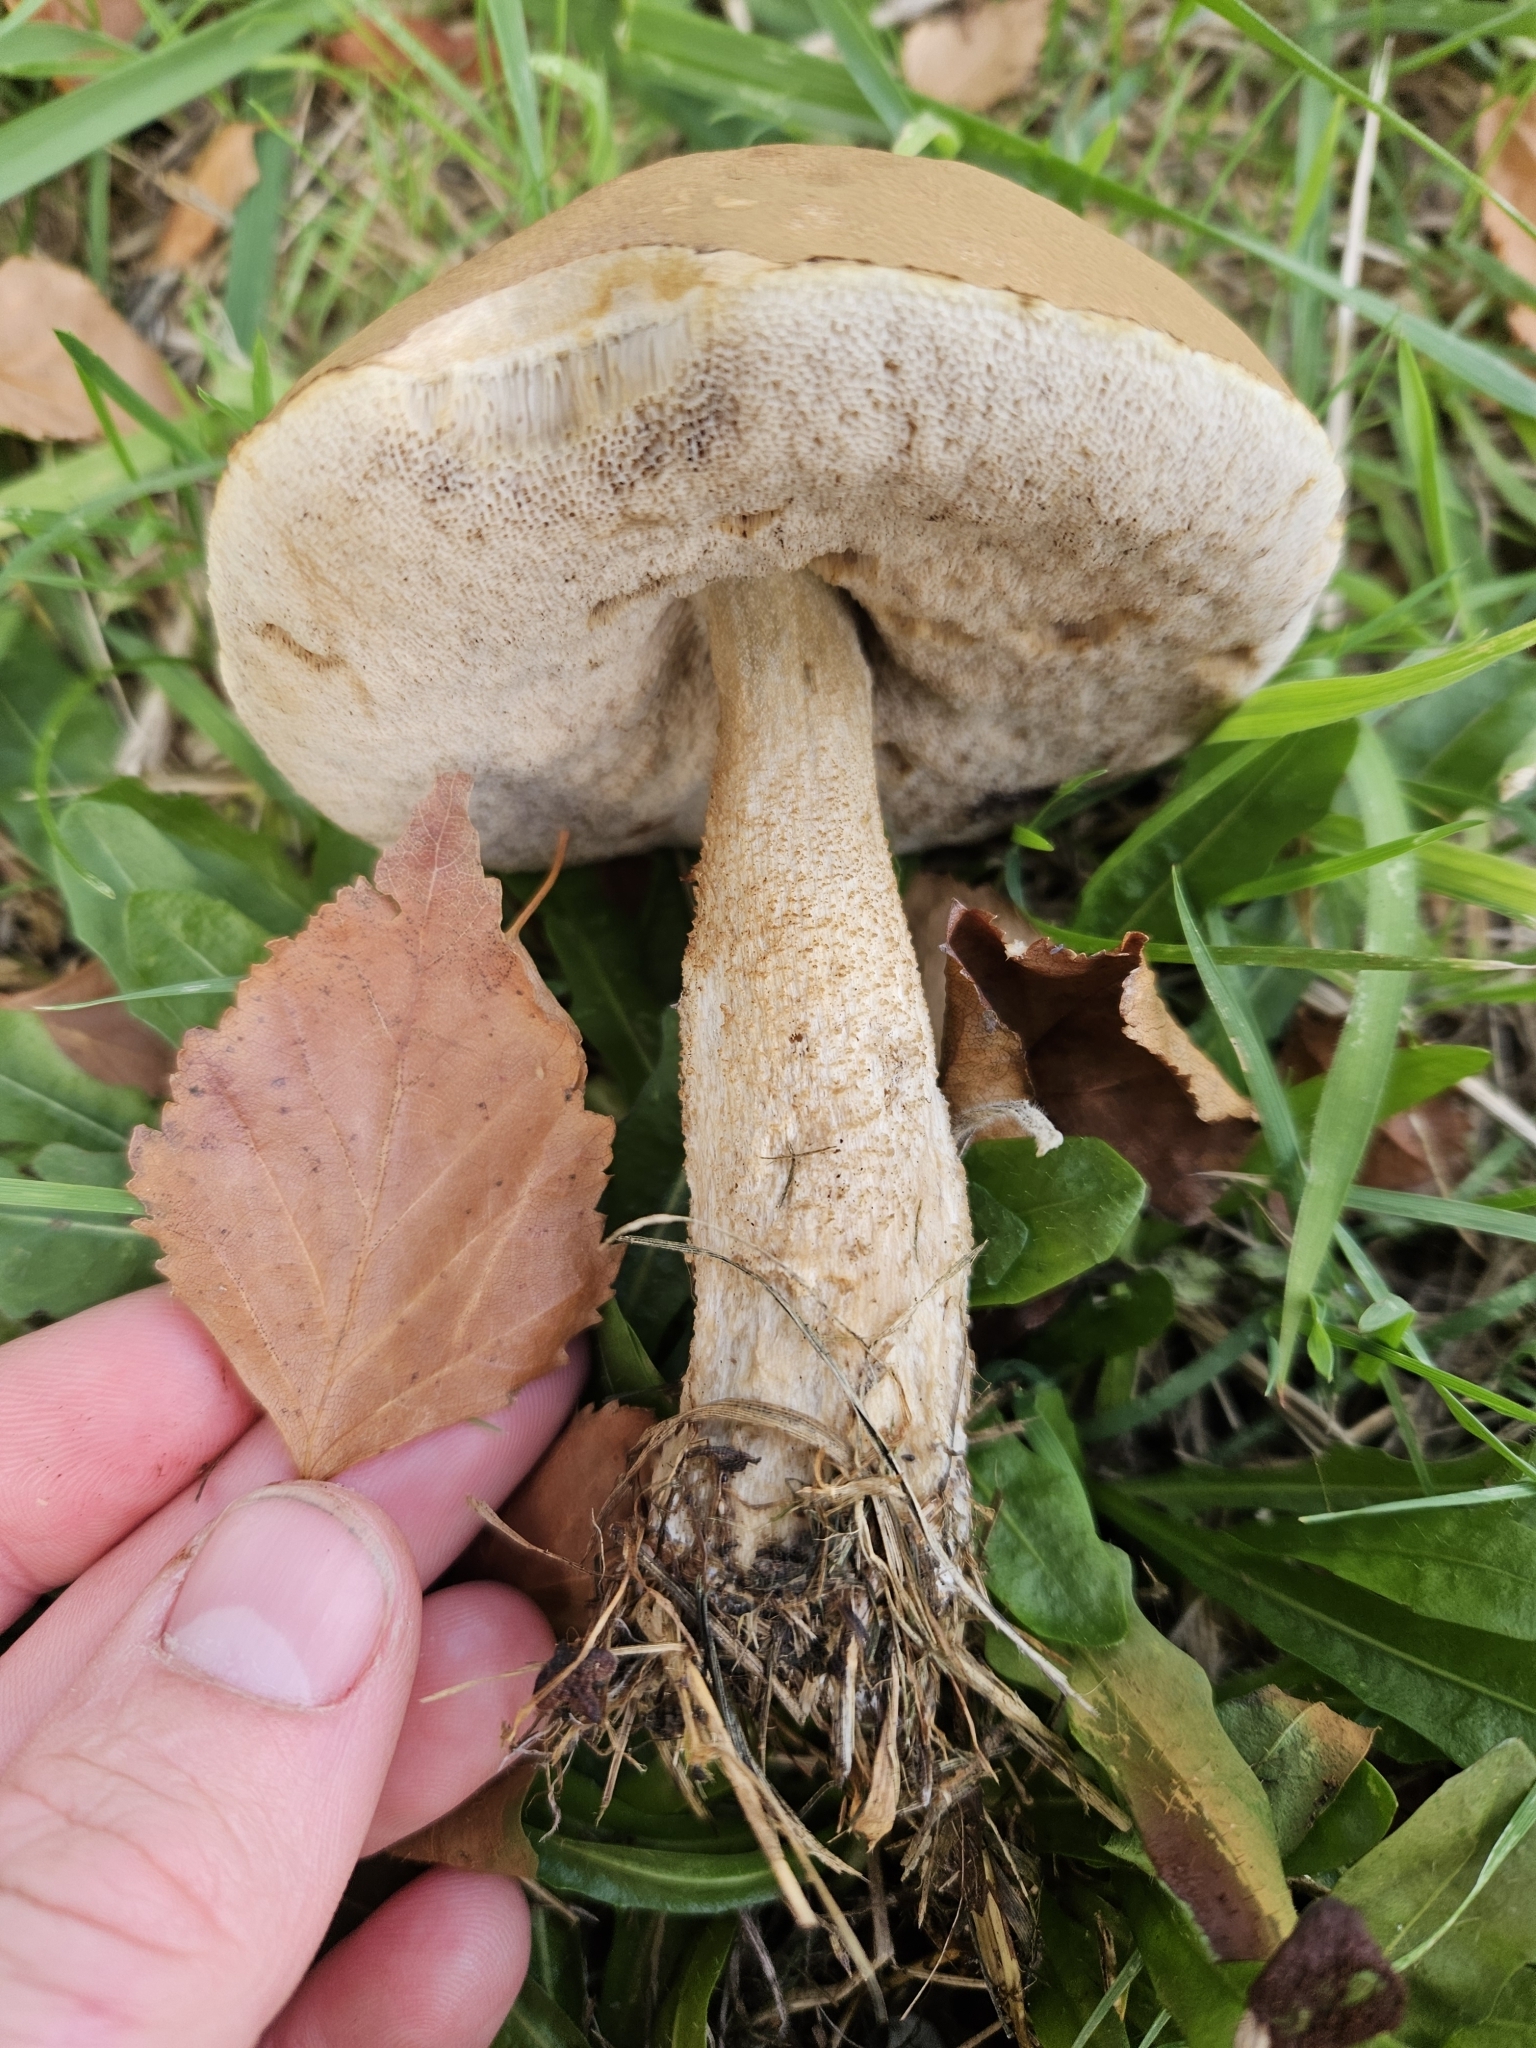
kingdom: Fungi
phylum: Basidiomycota
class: Agaricomycetes
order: Boletales
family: Boletaceae
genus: Leccinum
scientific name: Leccinum scabrum
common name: Blushing bolete
